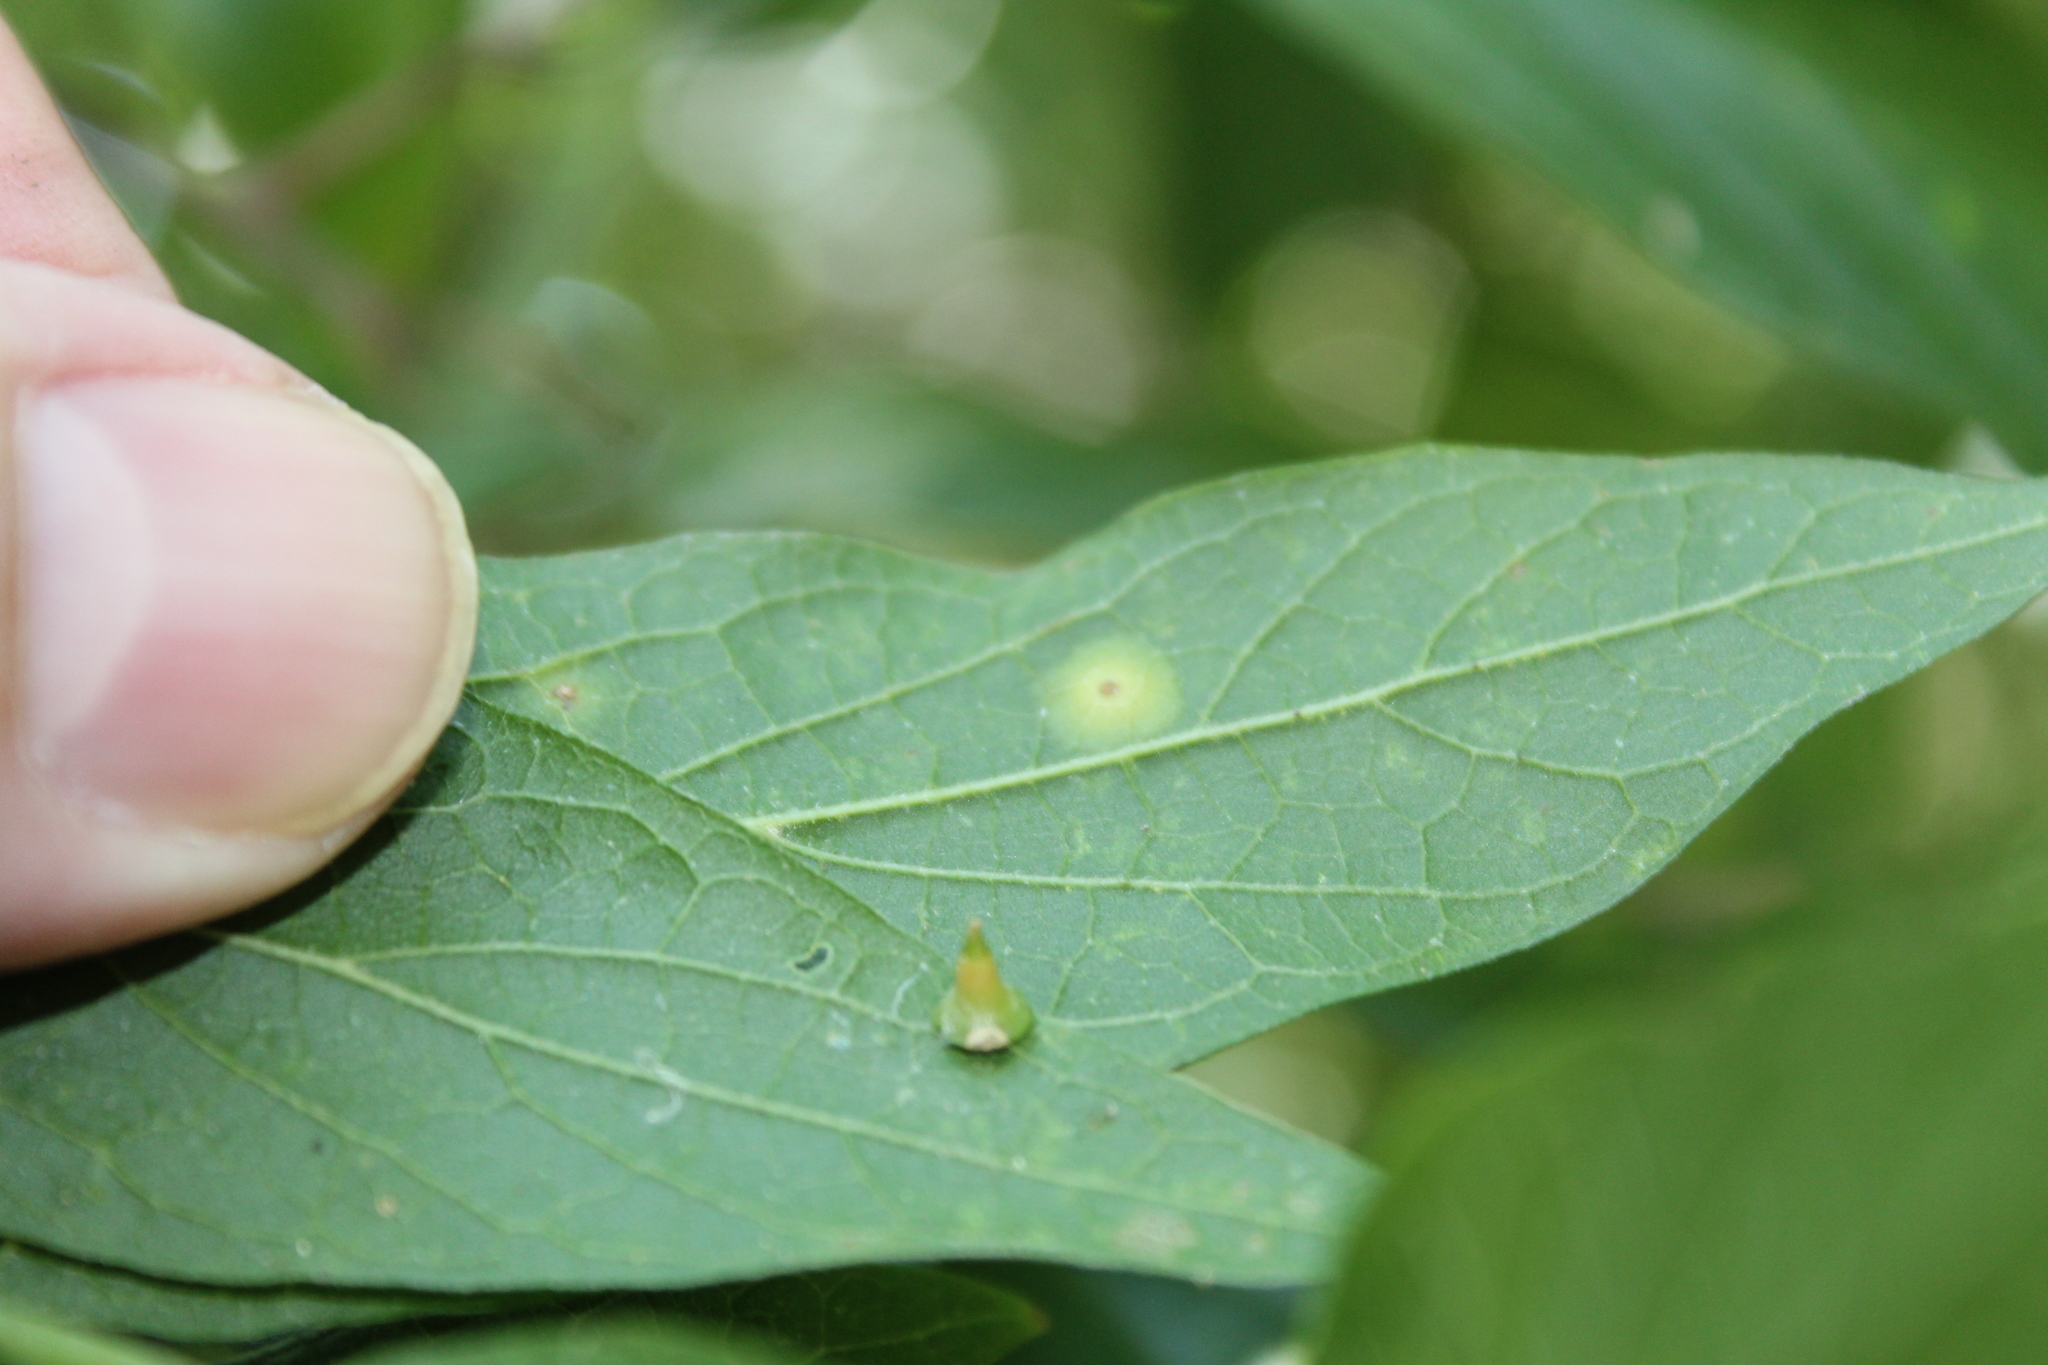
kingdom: Animalia
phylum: Arthropoda
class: Insecta
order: Diptera
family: Cecidomyiidae
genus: Celticecis
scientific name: Celticecis spiniformis
